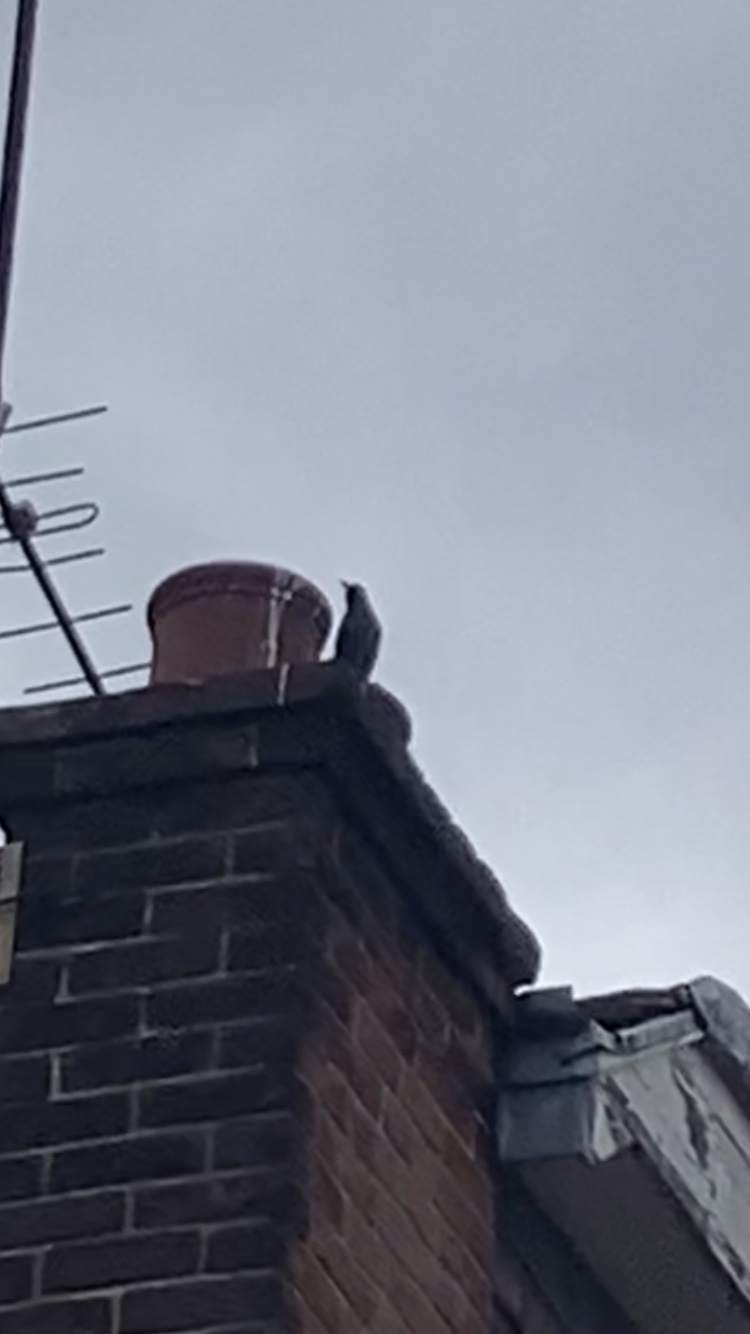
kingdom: Animalia
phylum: Chordata
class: Aves
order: Passeriformes
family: Sturnidae
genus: Sturnus
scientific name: Sturnus vulgaris
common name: Common starling
